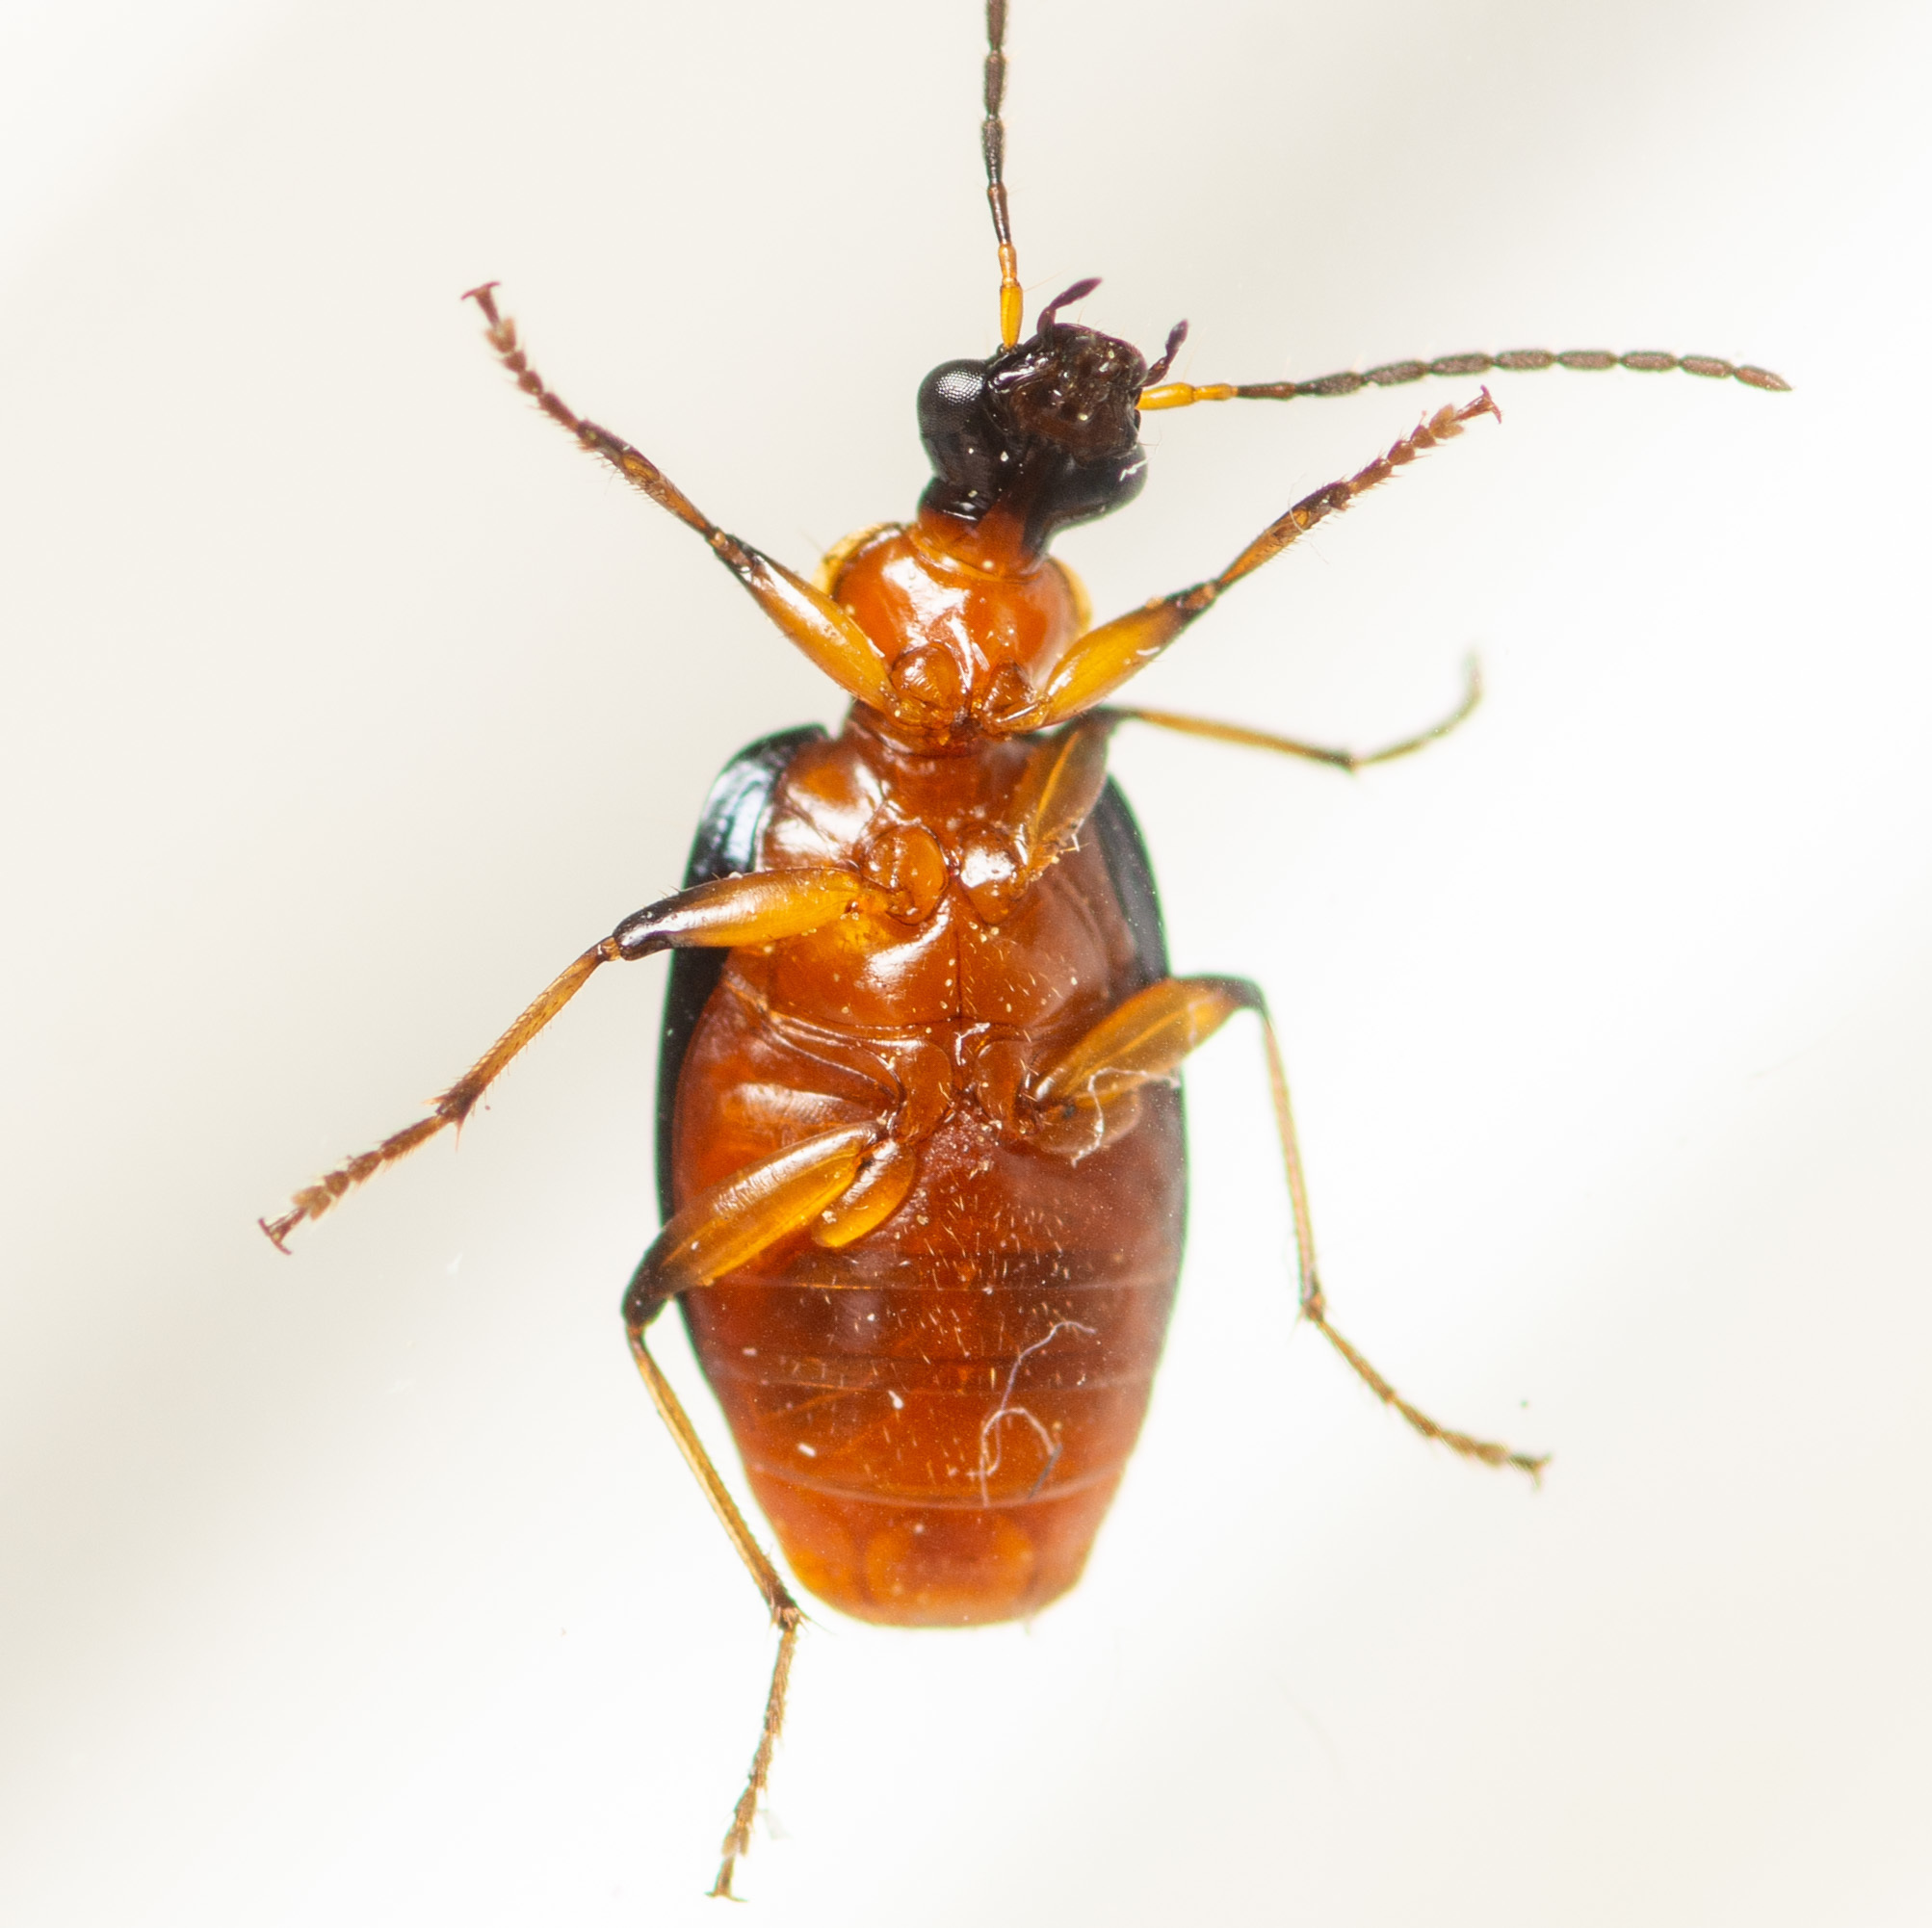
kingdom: Animalia
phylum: Arthropoda
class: Insecta
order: Coleoptera
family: Carabidae
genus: Lebia
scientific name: Lebia viridipennis
